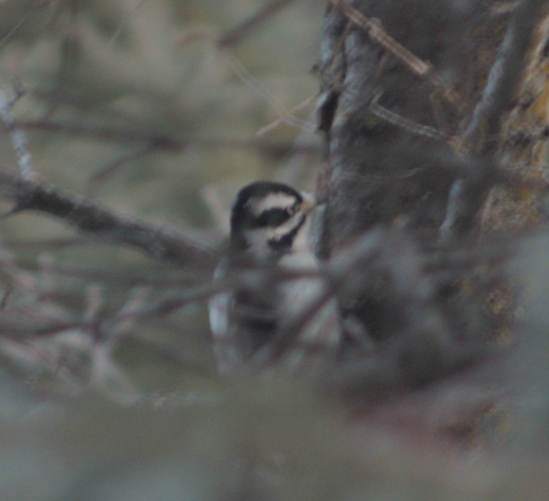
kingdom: Animalia
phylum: Chordata
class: Aves
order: Piciformes
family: Picidae
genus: Dryobates
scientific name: Dryobates pubescens
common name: Downy woodpecker
